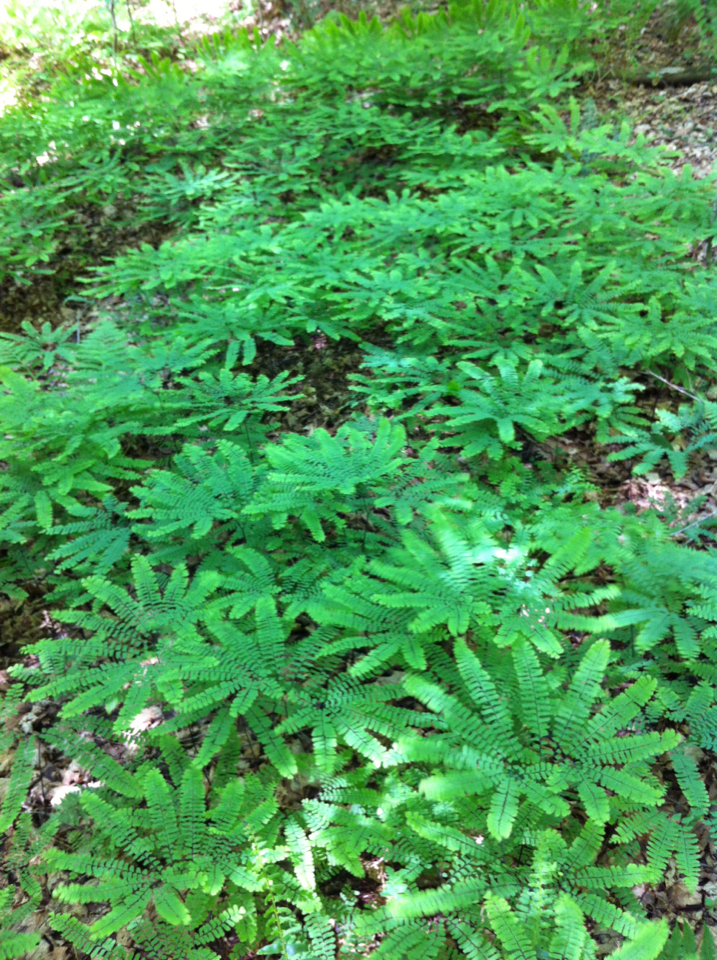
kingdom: Plantae
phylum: Tracheophyta
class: Polypodiopsida
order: Polypodiales
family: Pteridaceae
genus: Adiantum
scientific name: Adiantum pedatum
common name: Five-finger fern
